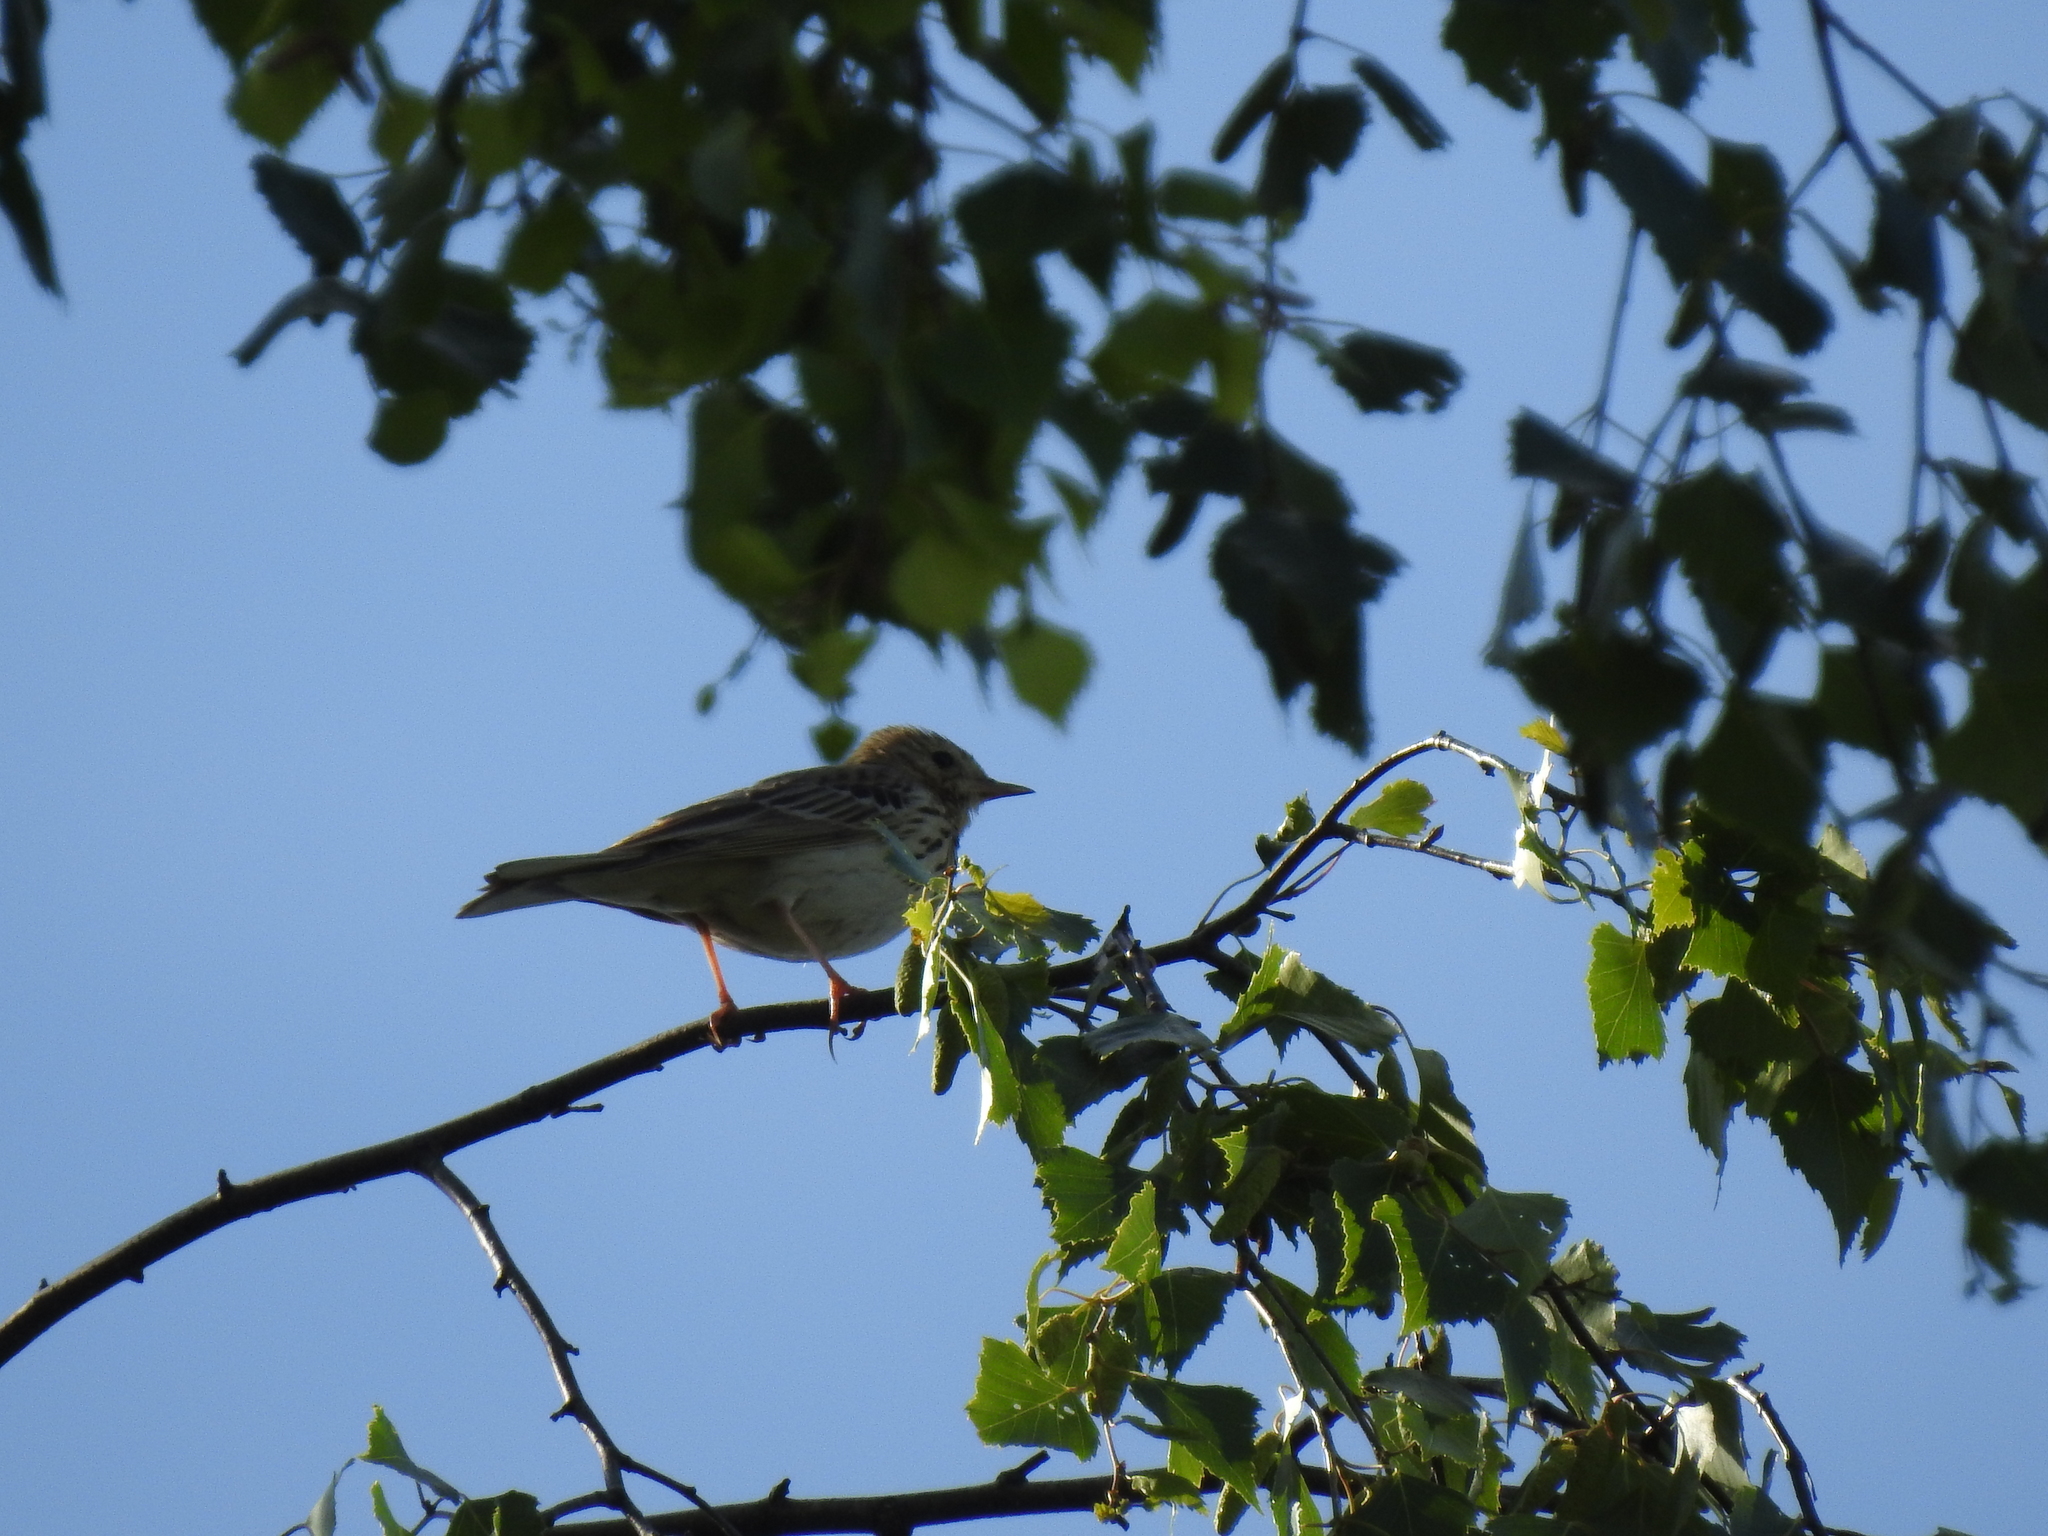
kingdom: Animalia
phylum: Chordata
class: Aves
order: Passeriformes
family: Motacillidae
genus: Anthus
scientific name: Anthus trivialis
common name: Tree pipit
